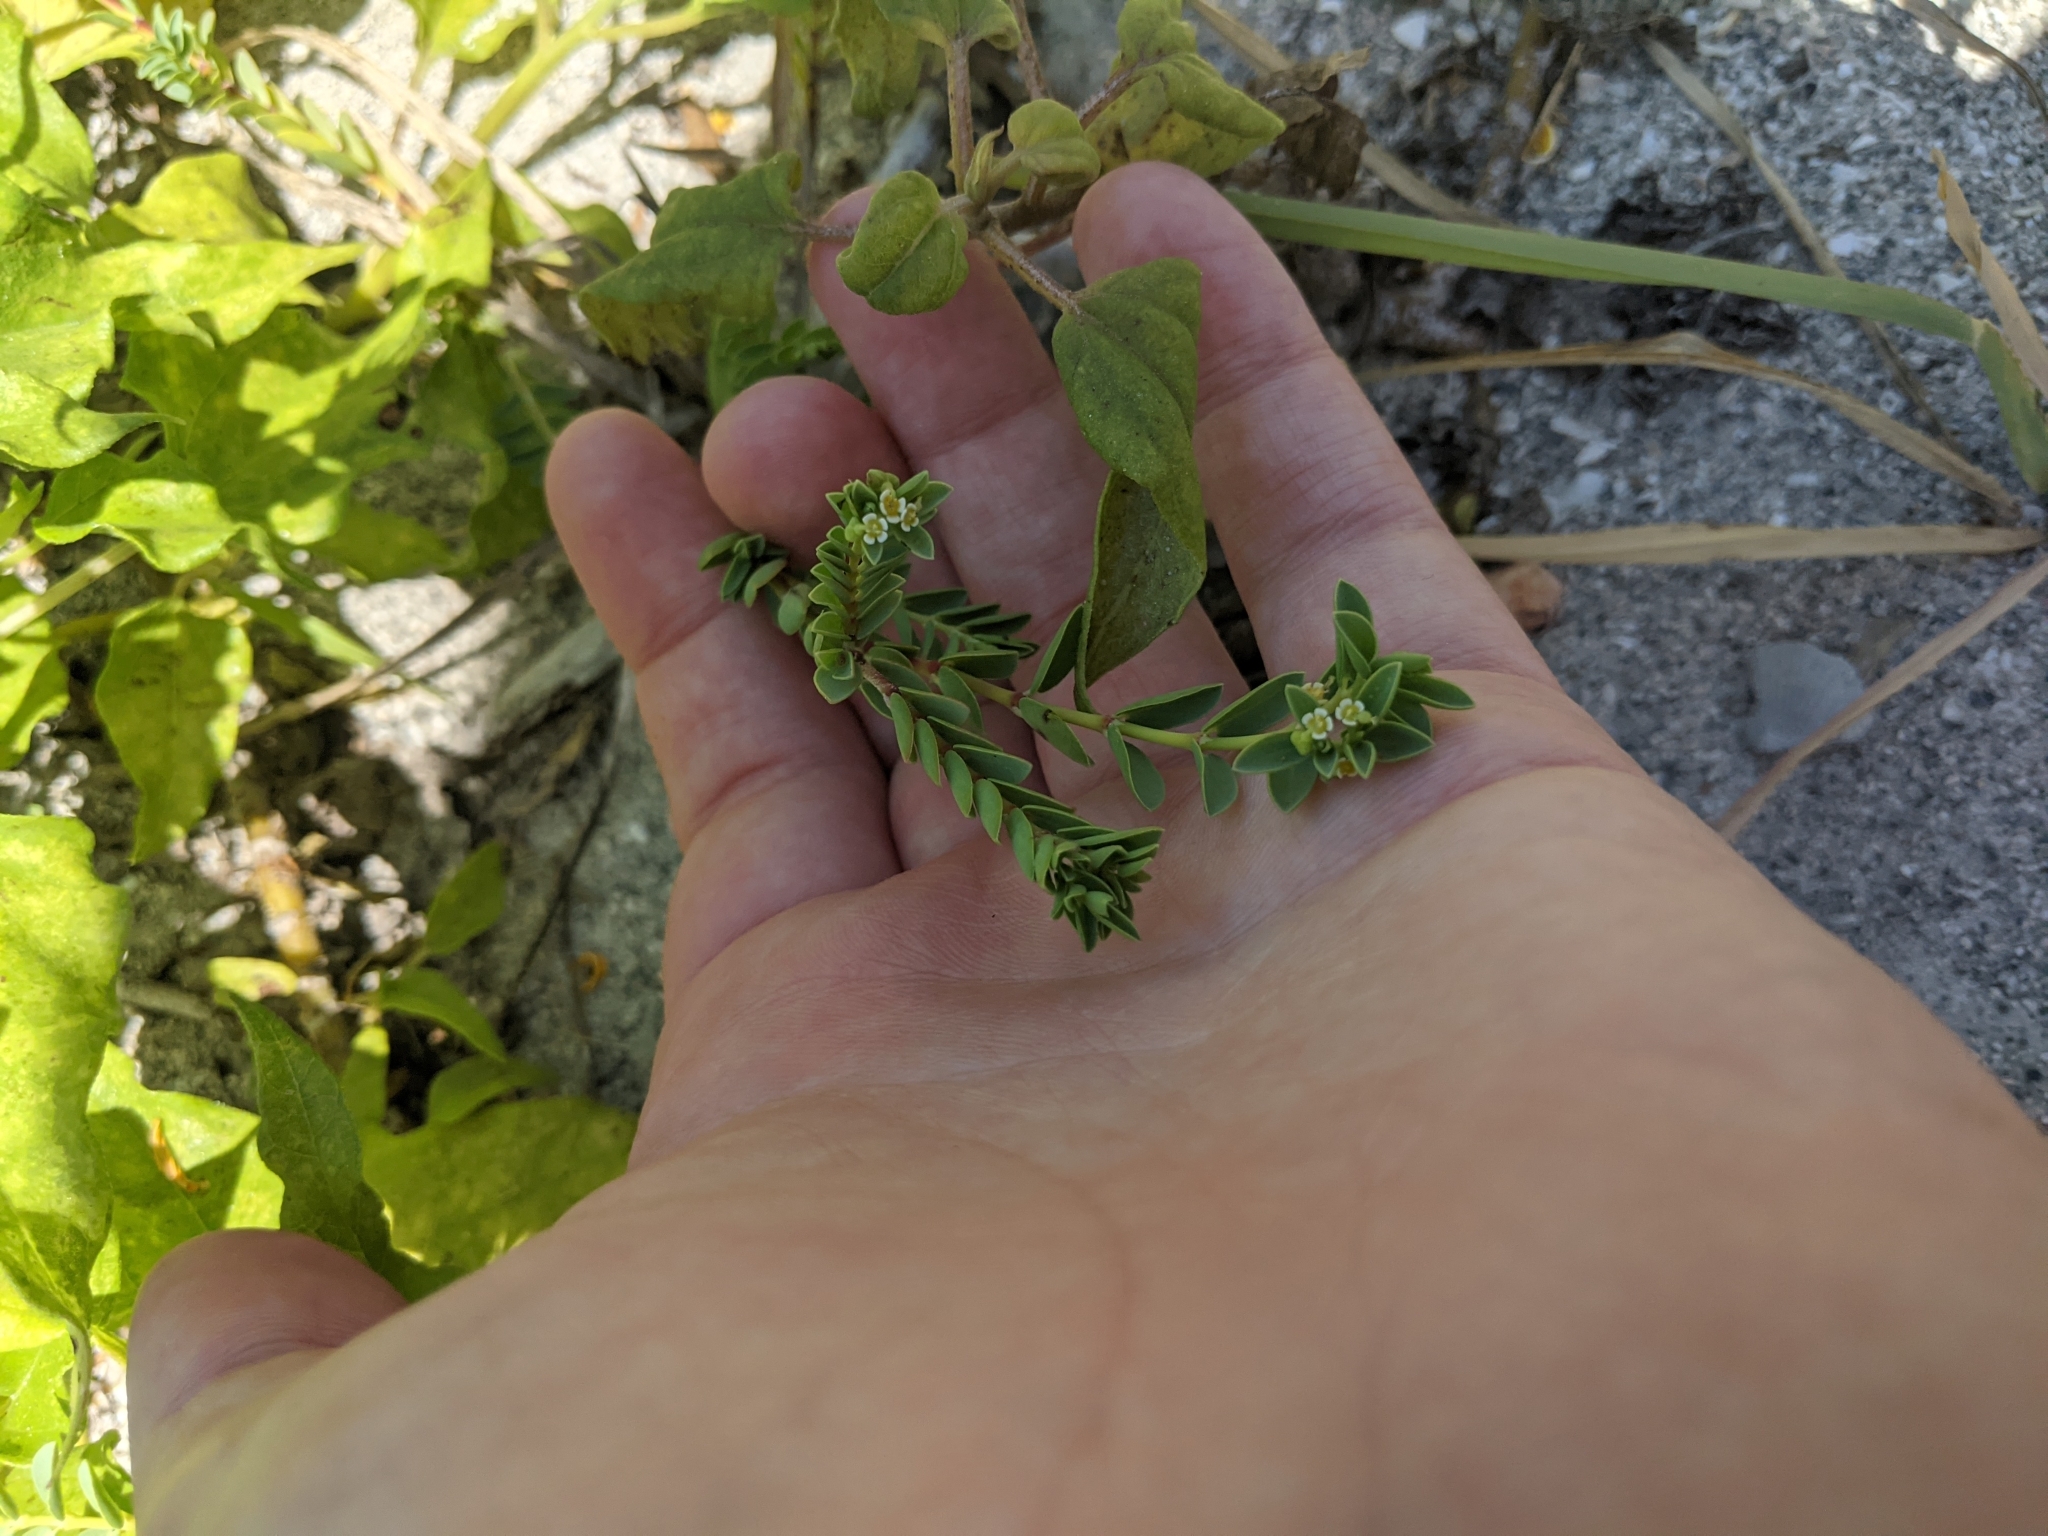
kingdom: Plantae
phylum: Tracheophyta
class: Magnoliopsida
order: Malpighiales
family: Euphorbiaceae
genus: Euphorbia
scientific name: Euphorbia mesembryanthemifolia
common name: Coastal beach sandmat
